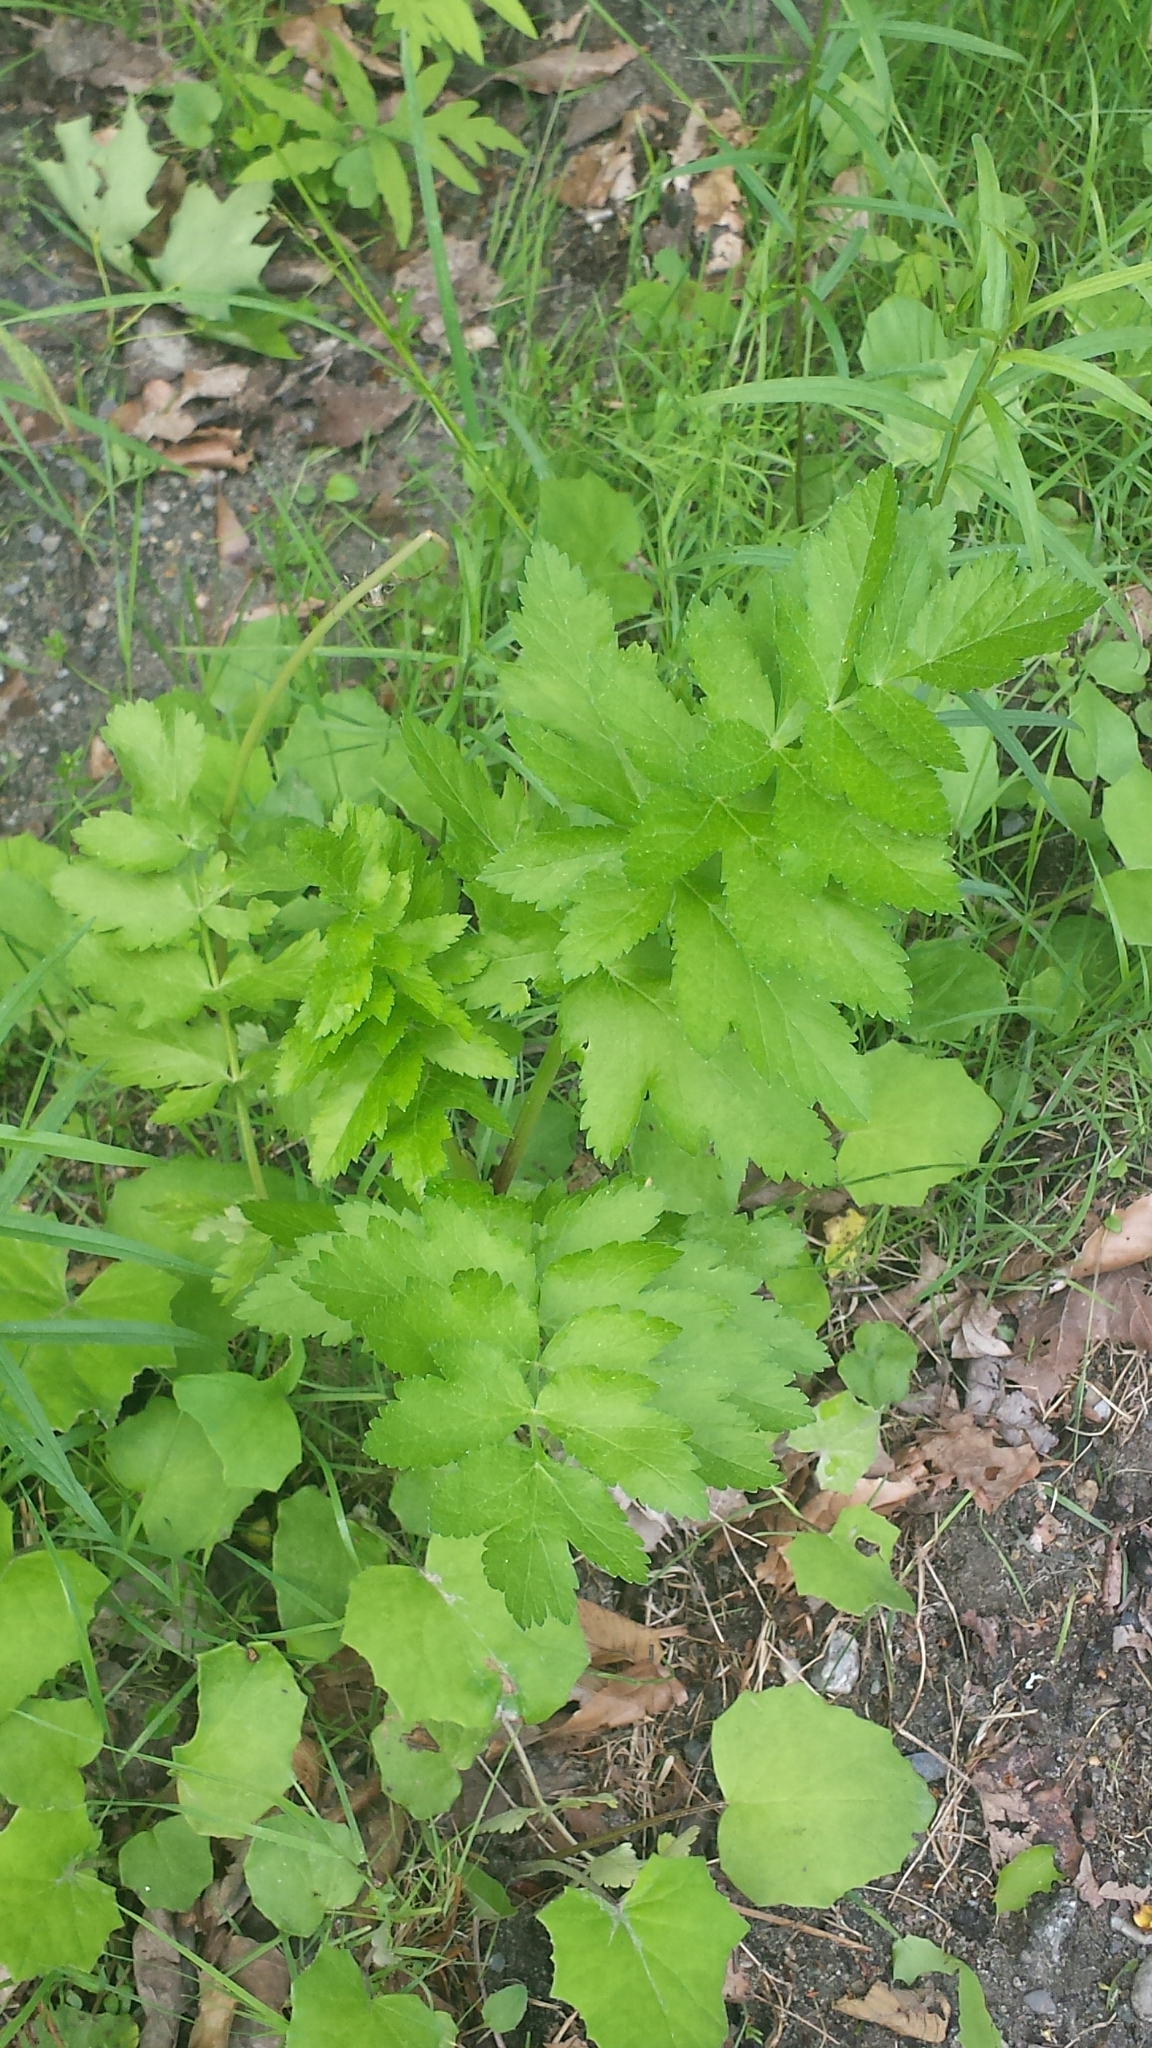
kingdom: Plantae
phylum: Tracheophyta
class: Magnoliopsida
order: Apiales
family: Apiaceae
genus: Pastinaca
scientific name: Pastinaca sativa
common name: Wild parsnip
